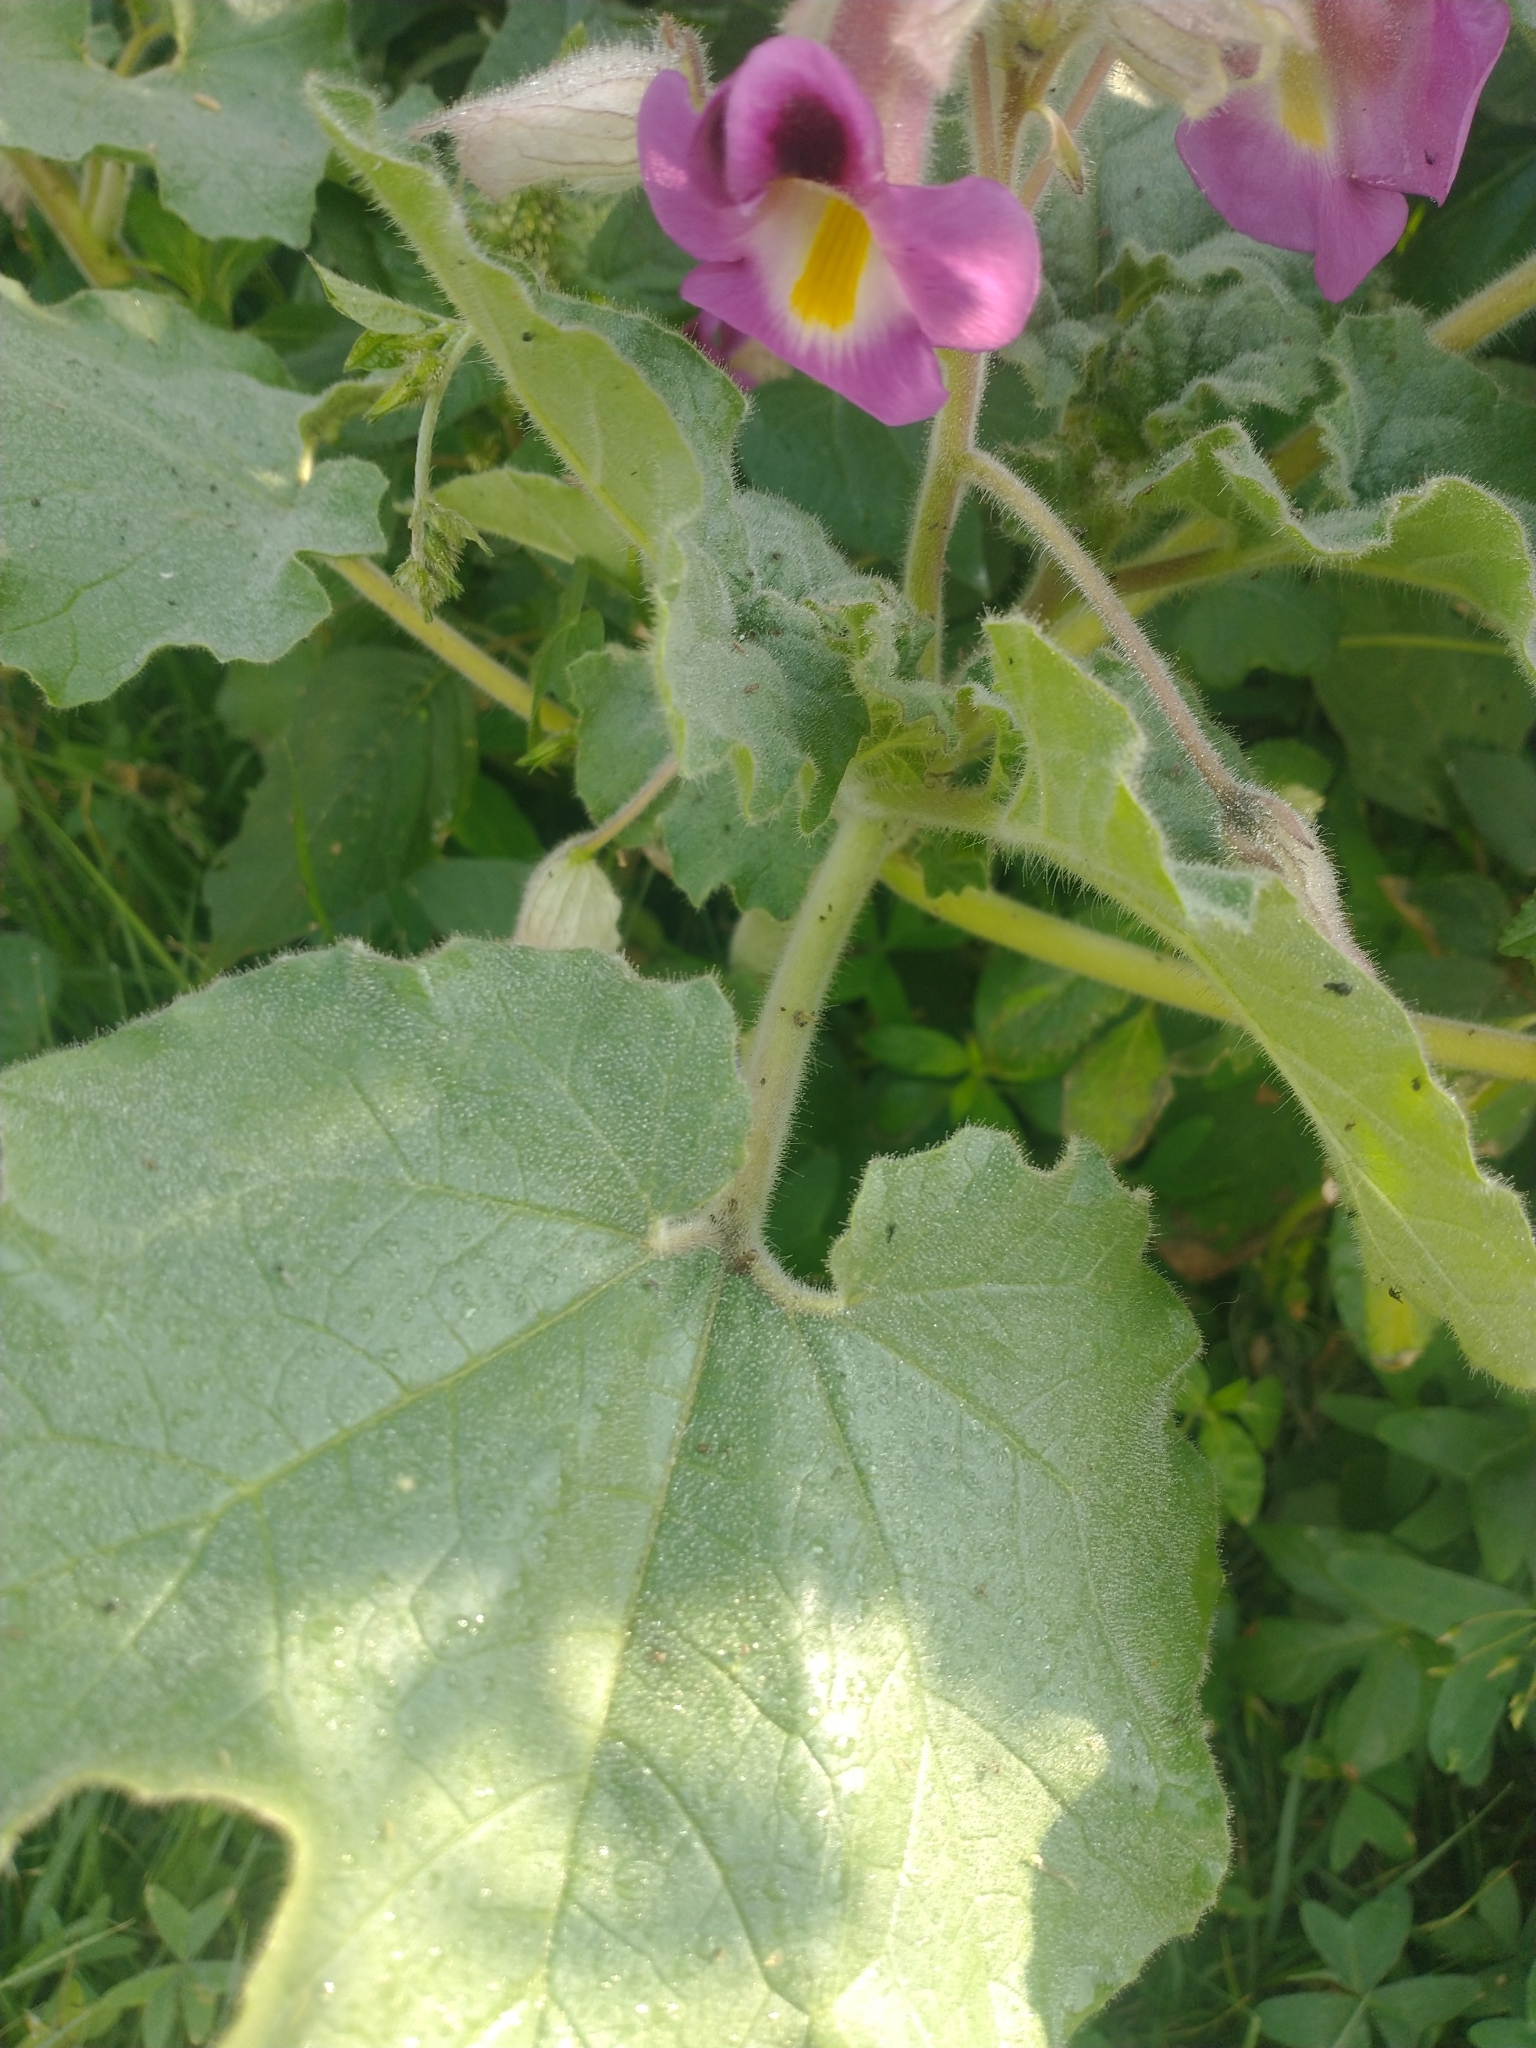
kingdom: Plantae
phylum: Tracheophyta
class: Magnoliopsida
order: Lamiales
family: Martyniaceae
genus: Proboscidea
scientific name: Proboscidea parviflora
